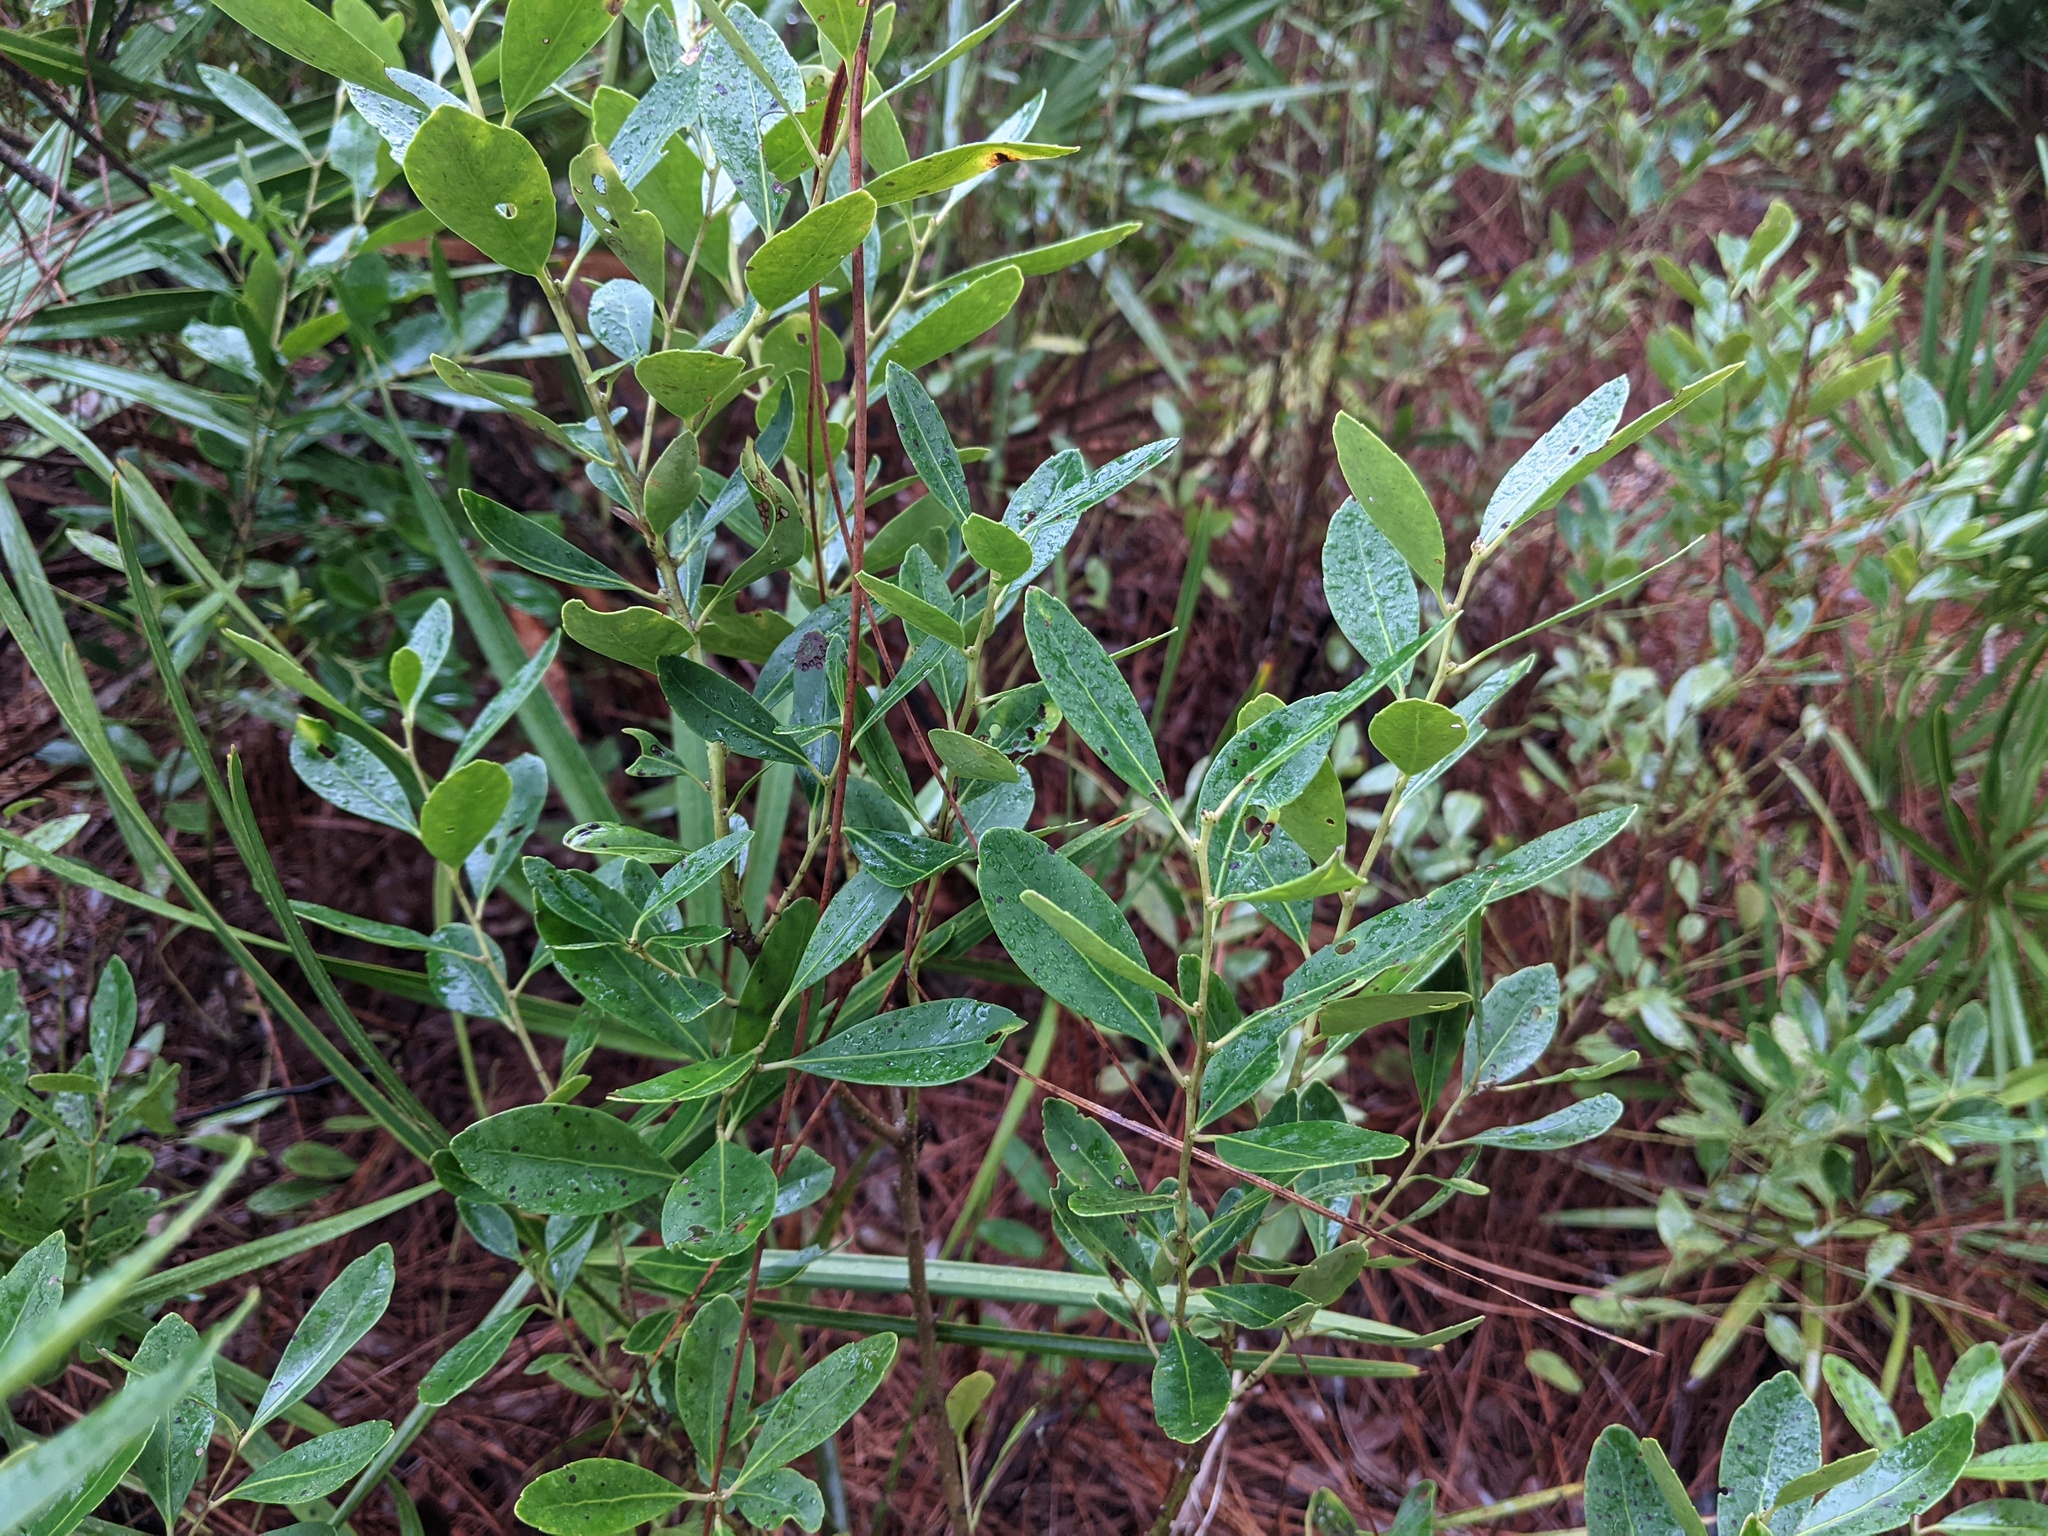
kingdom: Plantae
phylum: Tracheophyta
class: Magnoliopsida
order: Aquifoliales
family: Aquifoliaceae
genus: Ilex
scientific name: Ilex glabra
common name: Bitter gallberry
